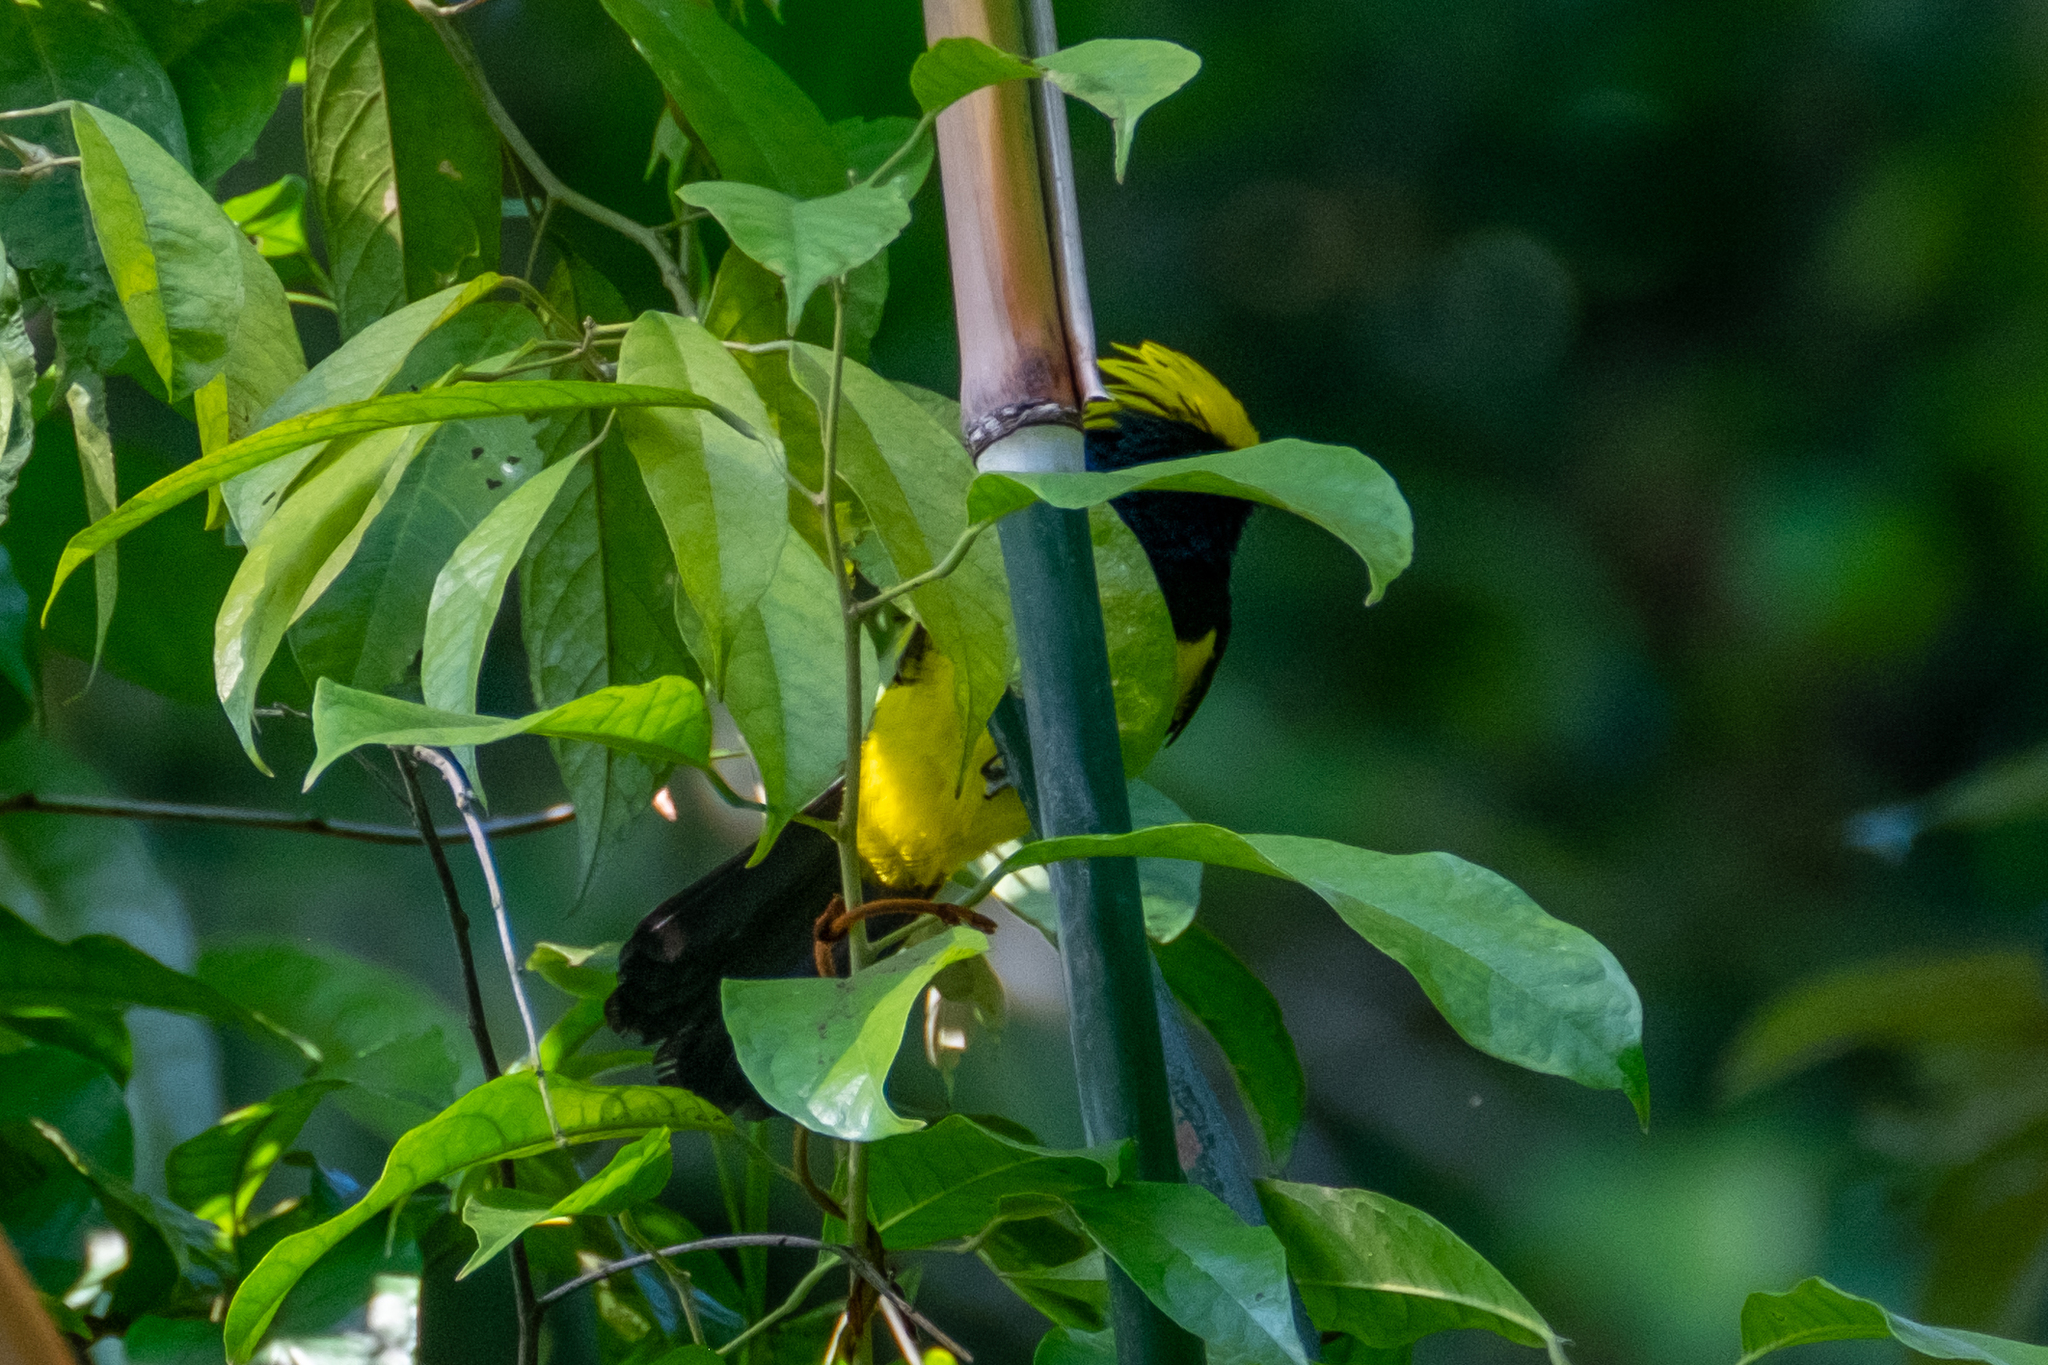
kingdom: Animalia
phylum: Chordata
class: Aves
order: Passeriformes
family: Paridae
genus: Melanochlora
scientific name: Melanochlora sultanea
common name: Sultan tit
